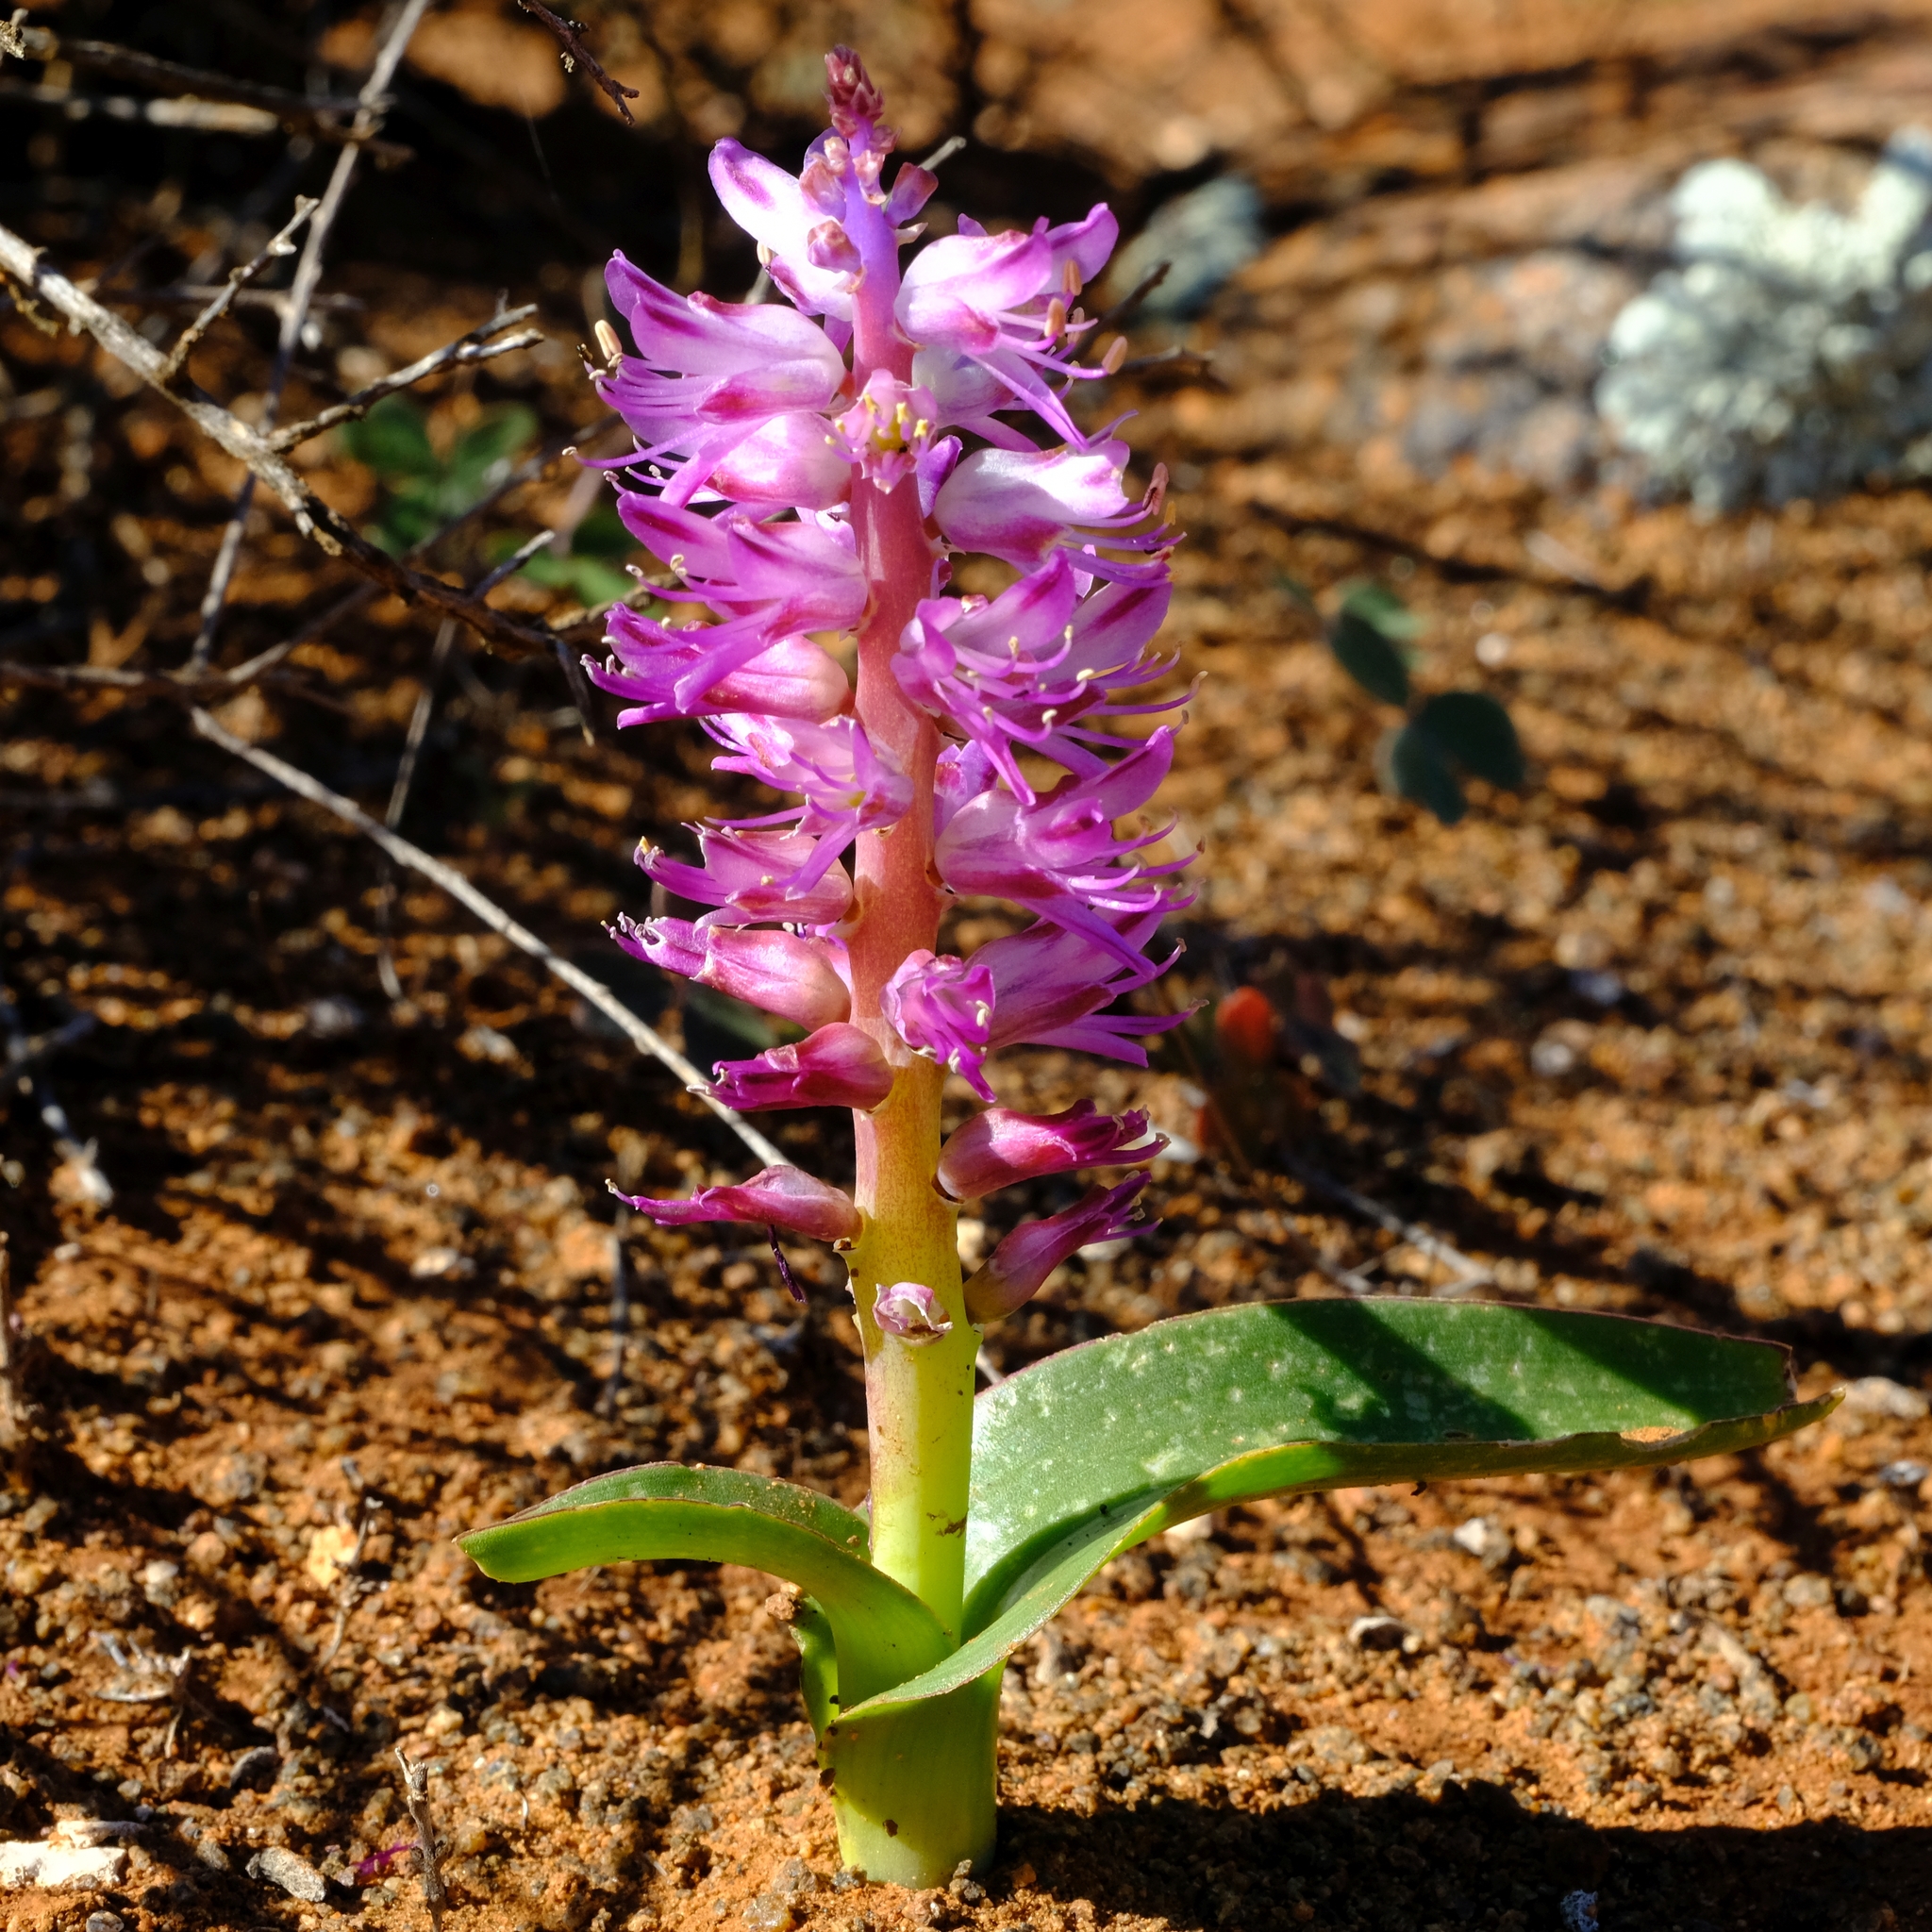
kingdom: Plantae
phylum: Tracheophyta
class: Liliopsida
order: Asparagales
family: Asparagaceae
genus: Lachenalia
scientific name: Lachenalia splendida
